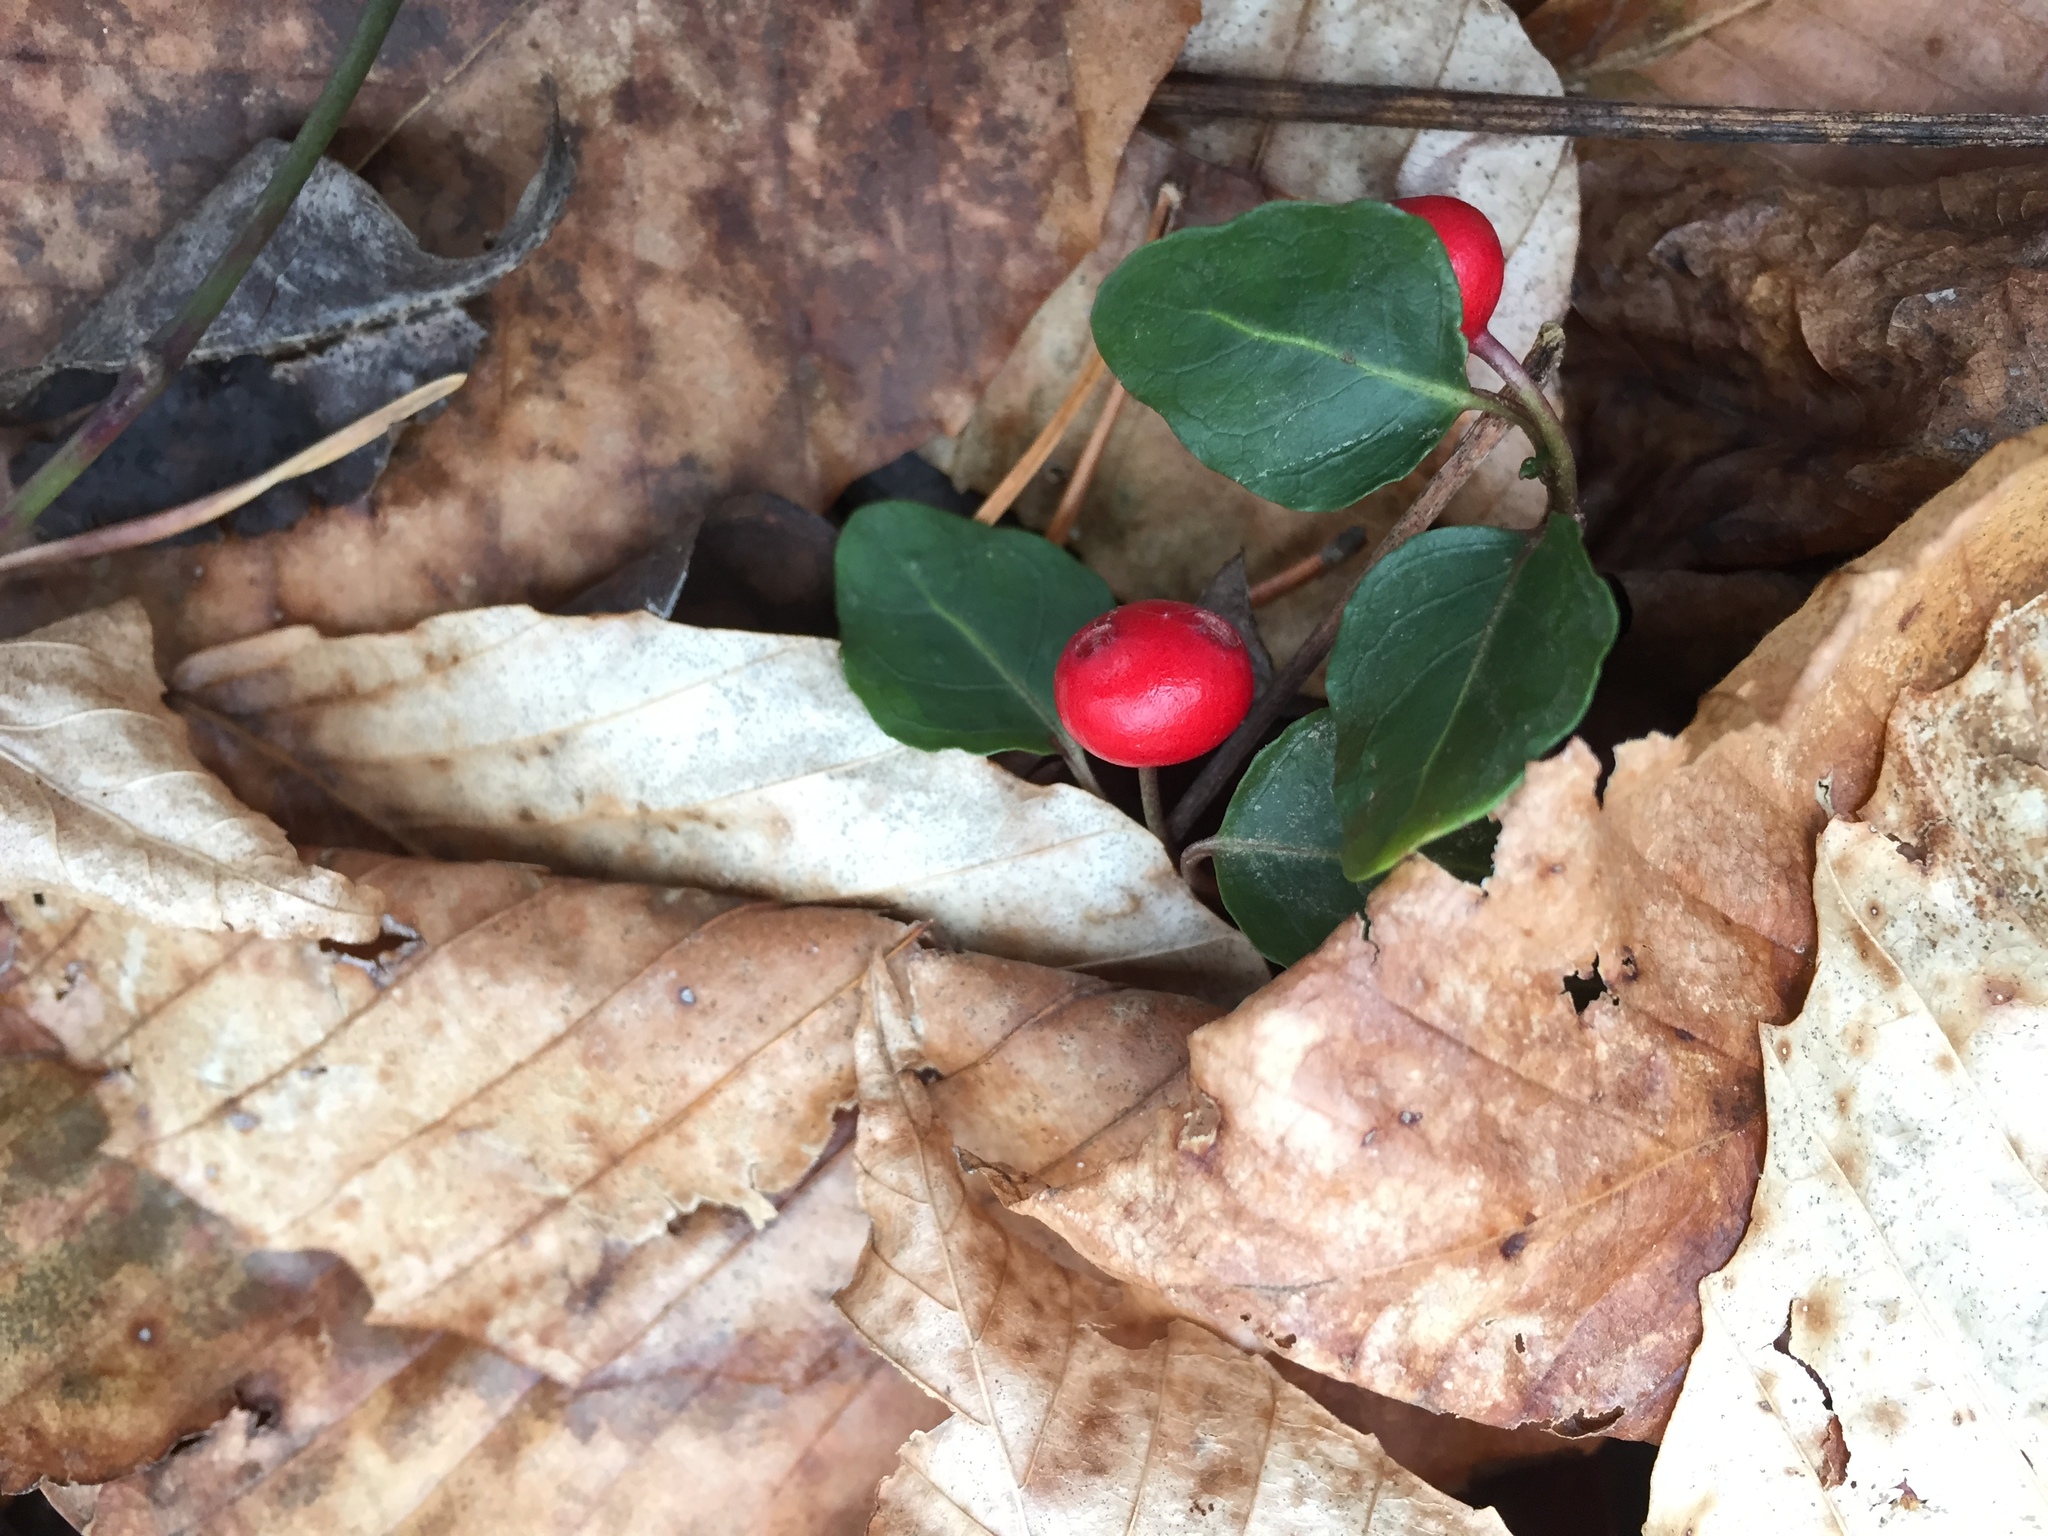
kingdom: Plantae
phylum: Tracheophyta
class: Magnoliopsida
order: Gentianales
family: Rubiaceae
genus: Mitchella
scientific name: Mitchella repens
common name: Partridge-berry
